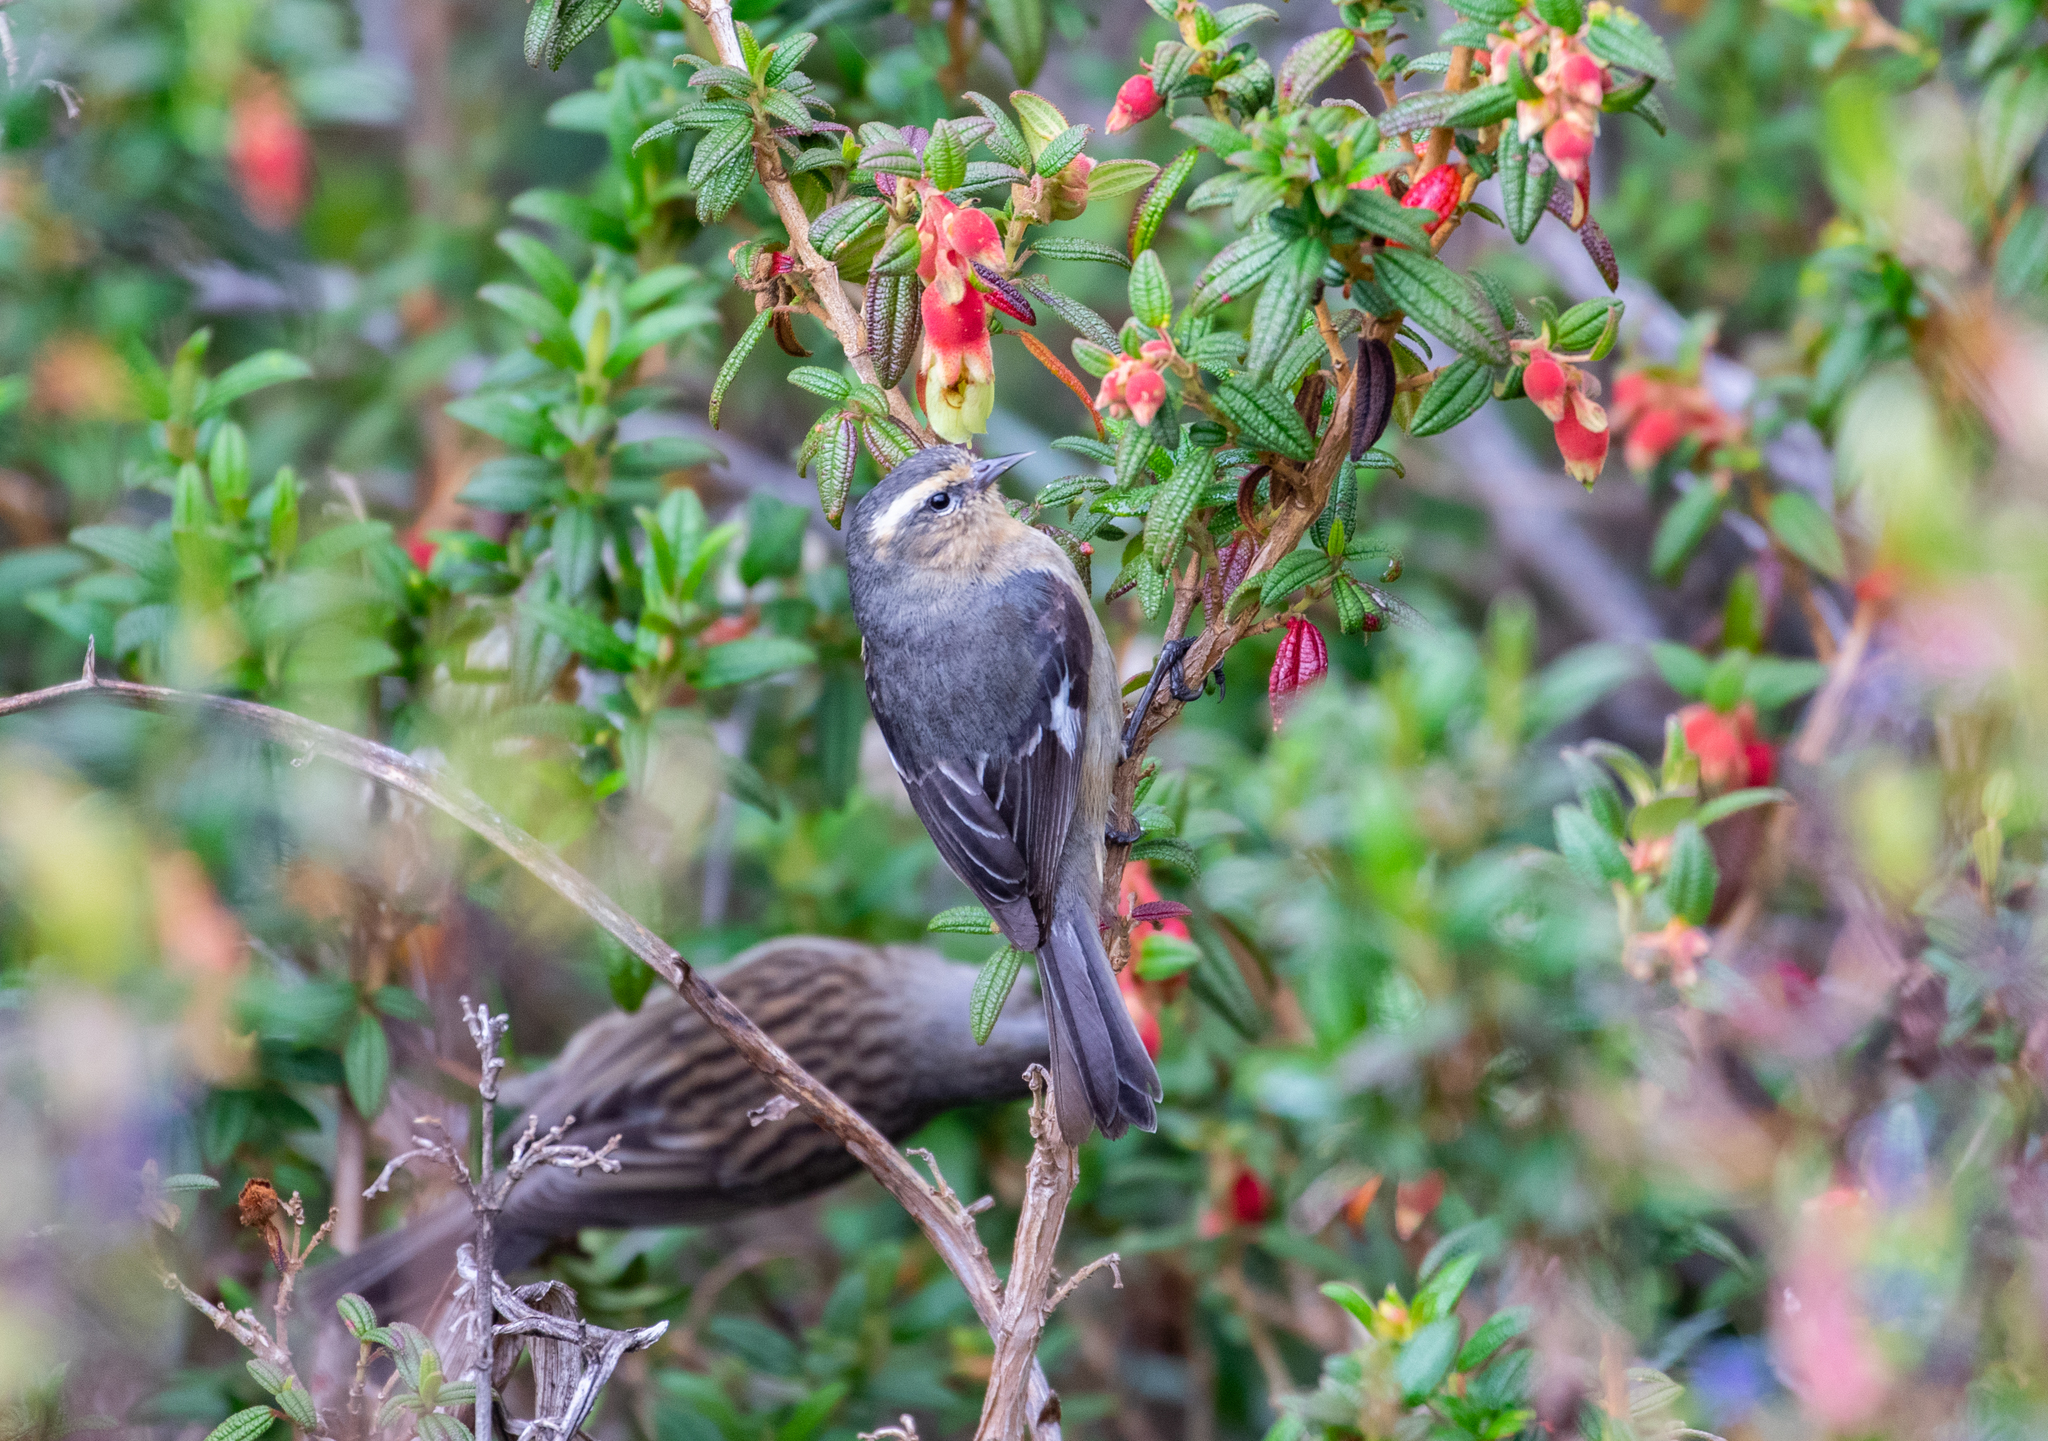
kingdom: Animalia
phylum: Chordata
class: Aves
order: Passeriformes
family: Thraupidae
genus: Conirostrum
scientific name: Conirostrum cinereum
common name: Cinereous conebill
